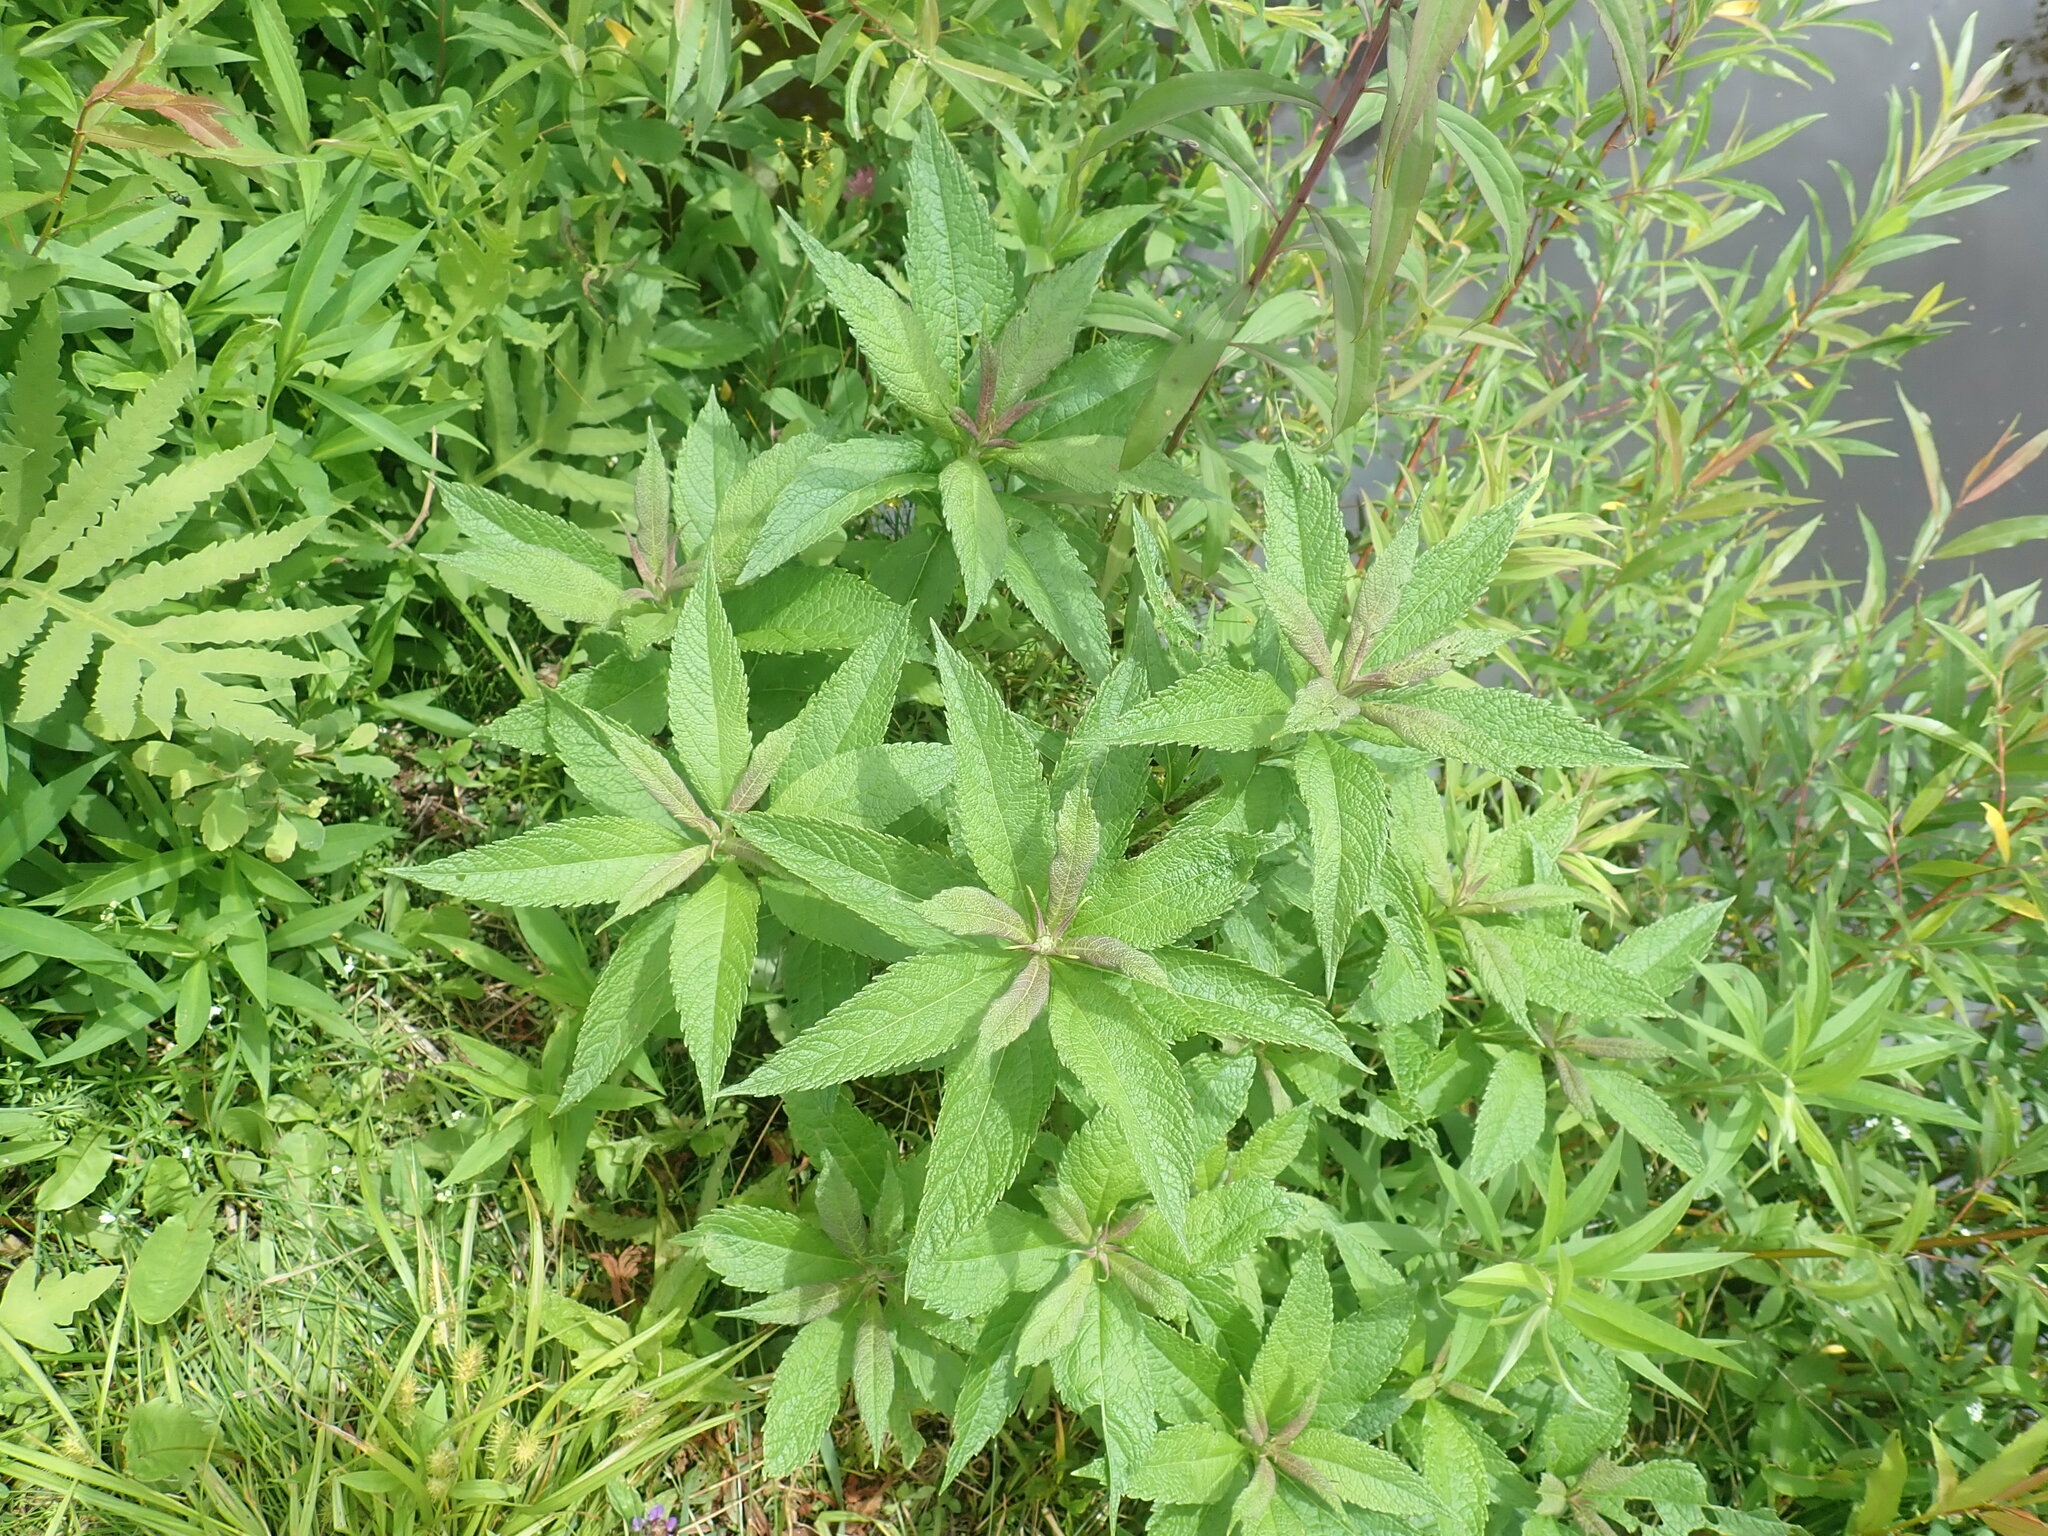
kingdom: Plantae
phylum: Tracheophyta
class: Magnoliopsida
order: Asterales
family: Asteraceae
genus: Eutrochium
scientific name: Eutrochium
